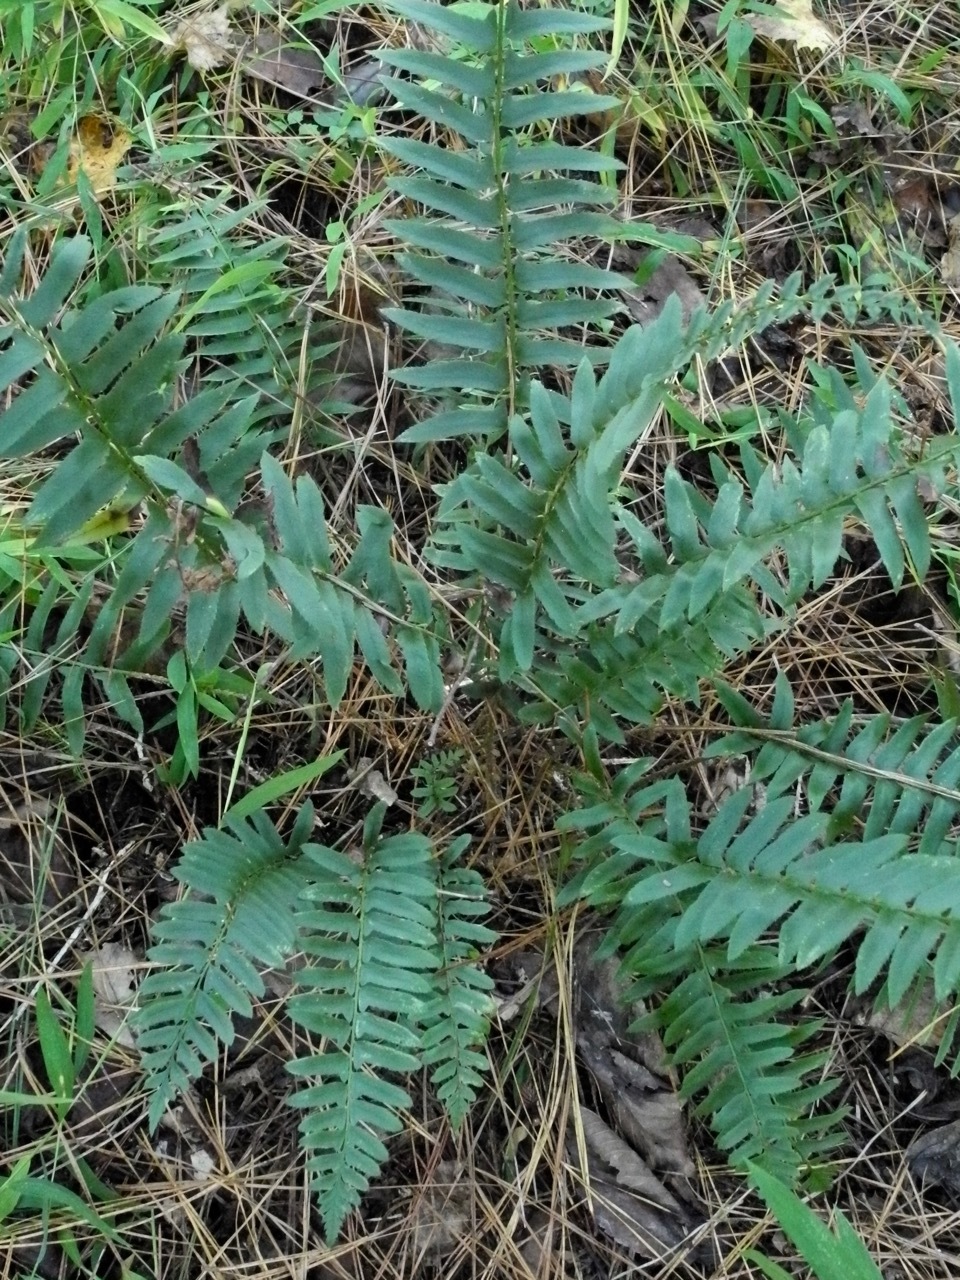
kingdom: Plantae
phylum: Tracheophyta
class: Polypodiopsida
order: Polypodiales
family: Dryopteridaceae
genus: Polystichum
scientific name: Polystichum acrostichoides
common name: Christmas fern
